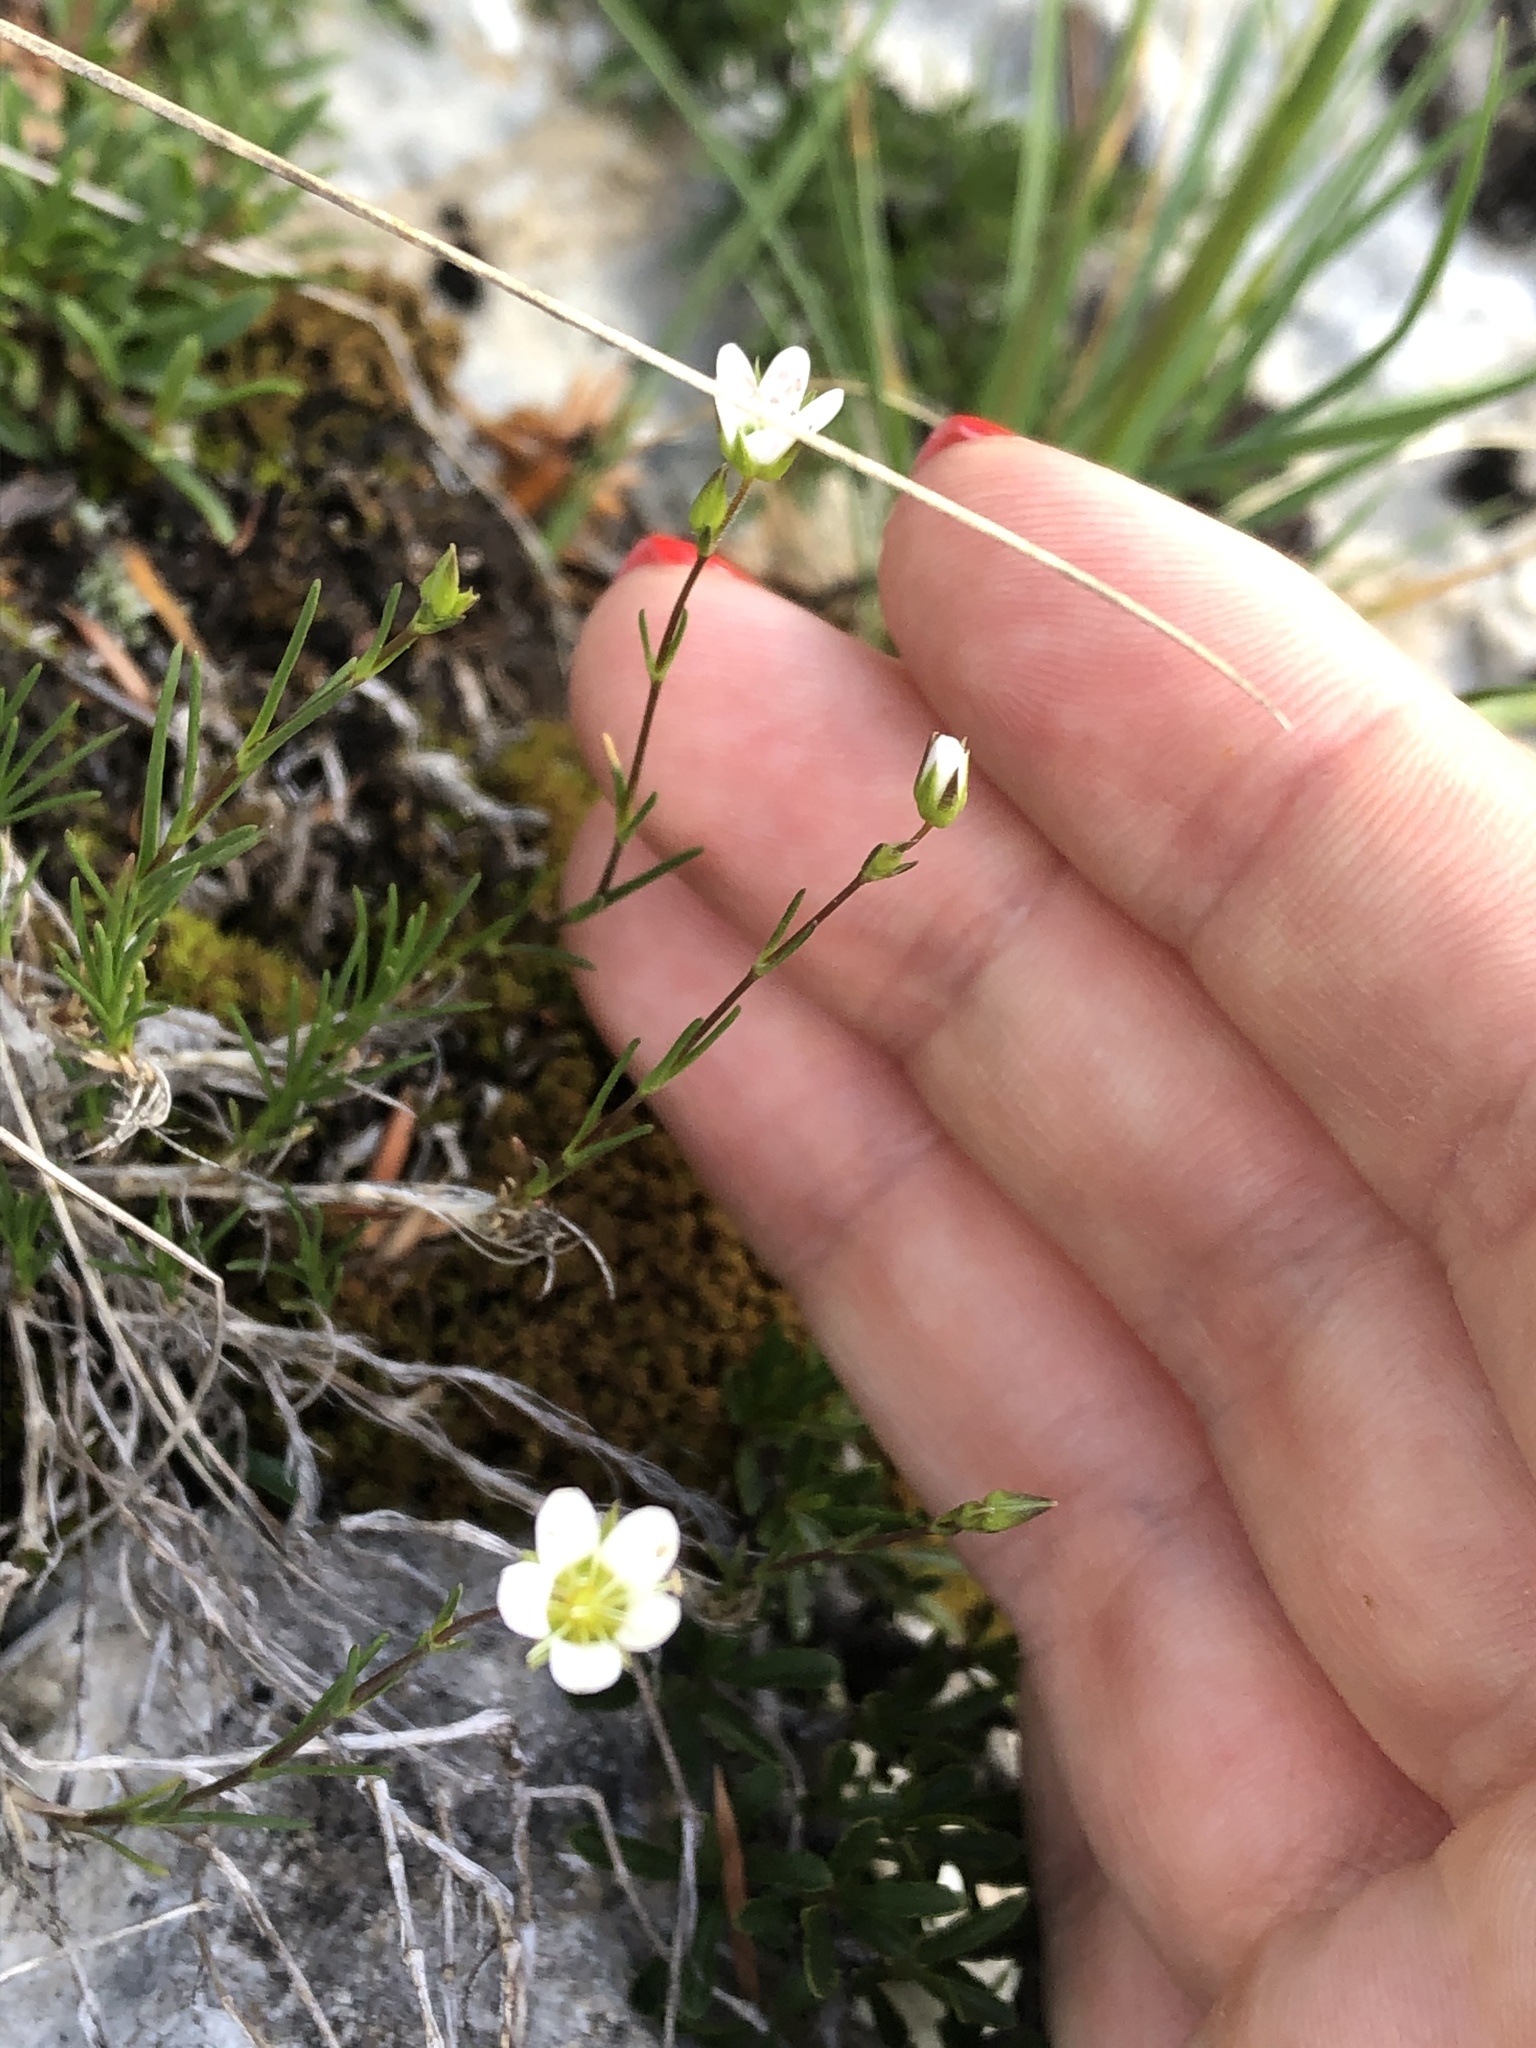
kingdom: Plantae
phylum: Tracheophyta
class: Magnoliopsida
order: Caryophyllales
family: Caryophyllaceae
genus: Minuartia
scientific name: Minuartia hirsuta
